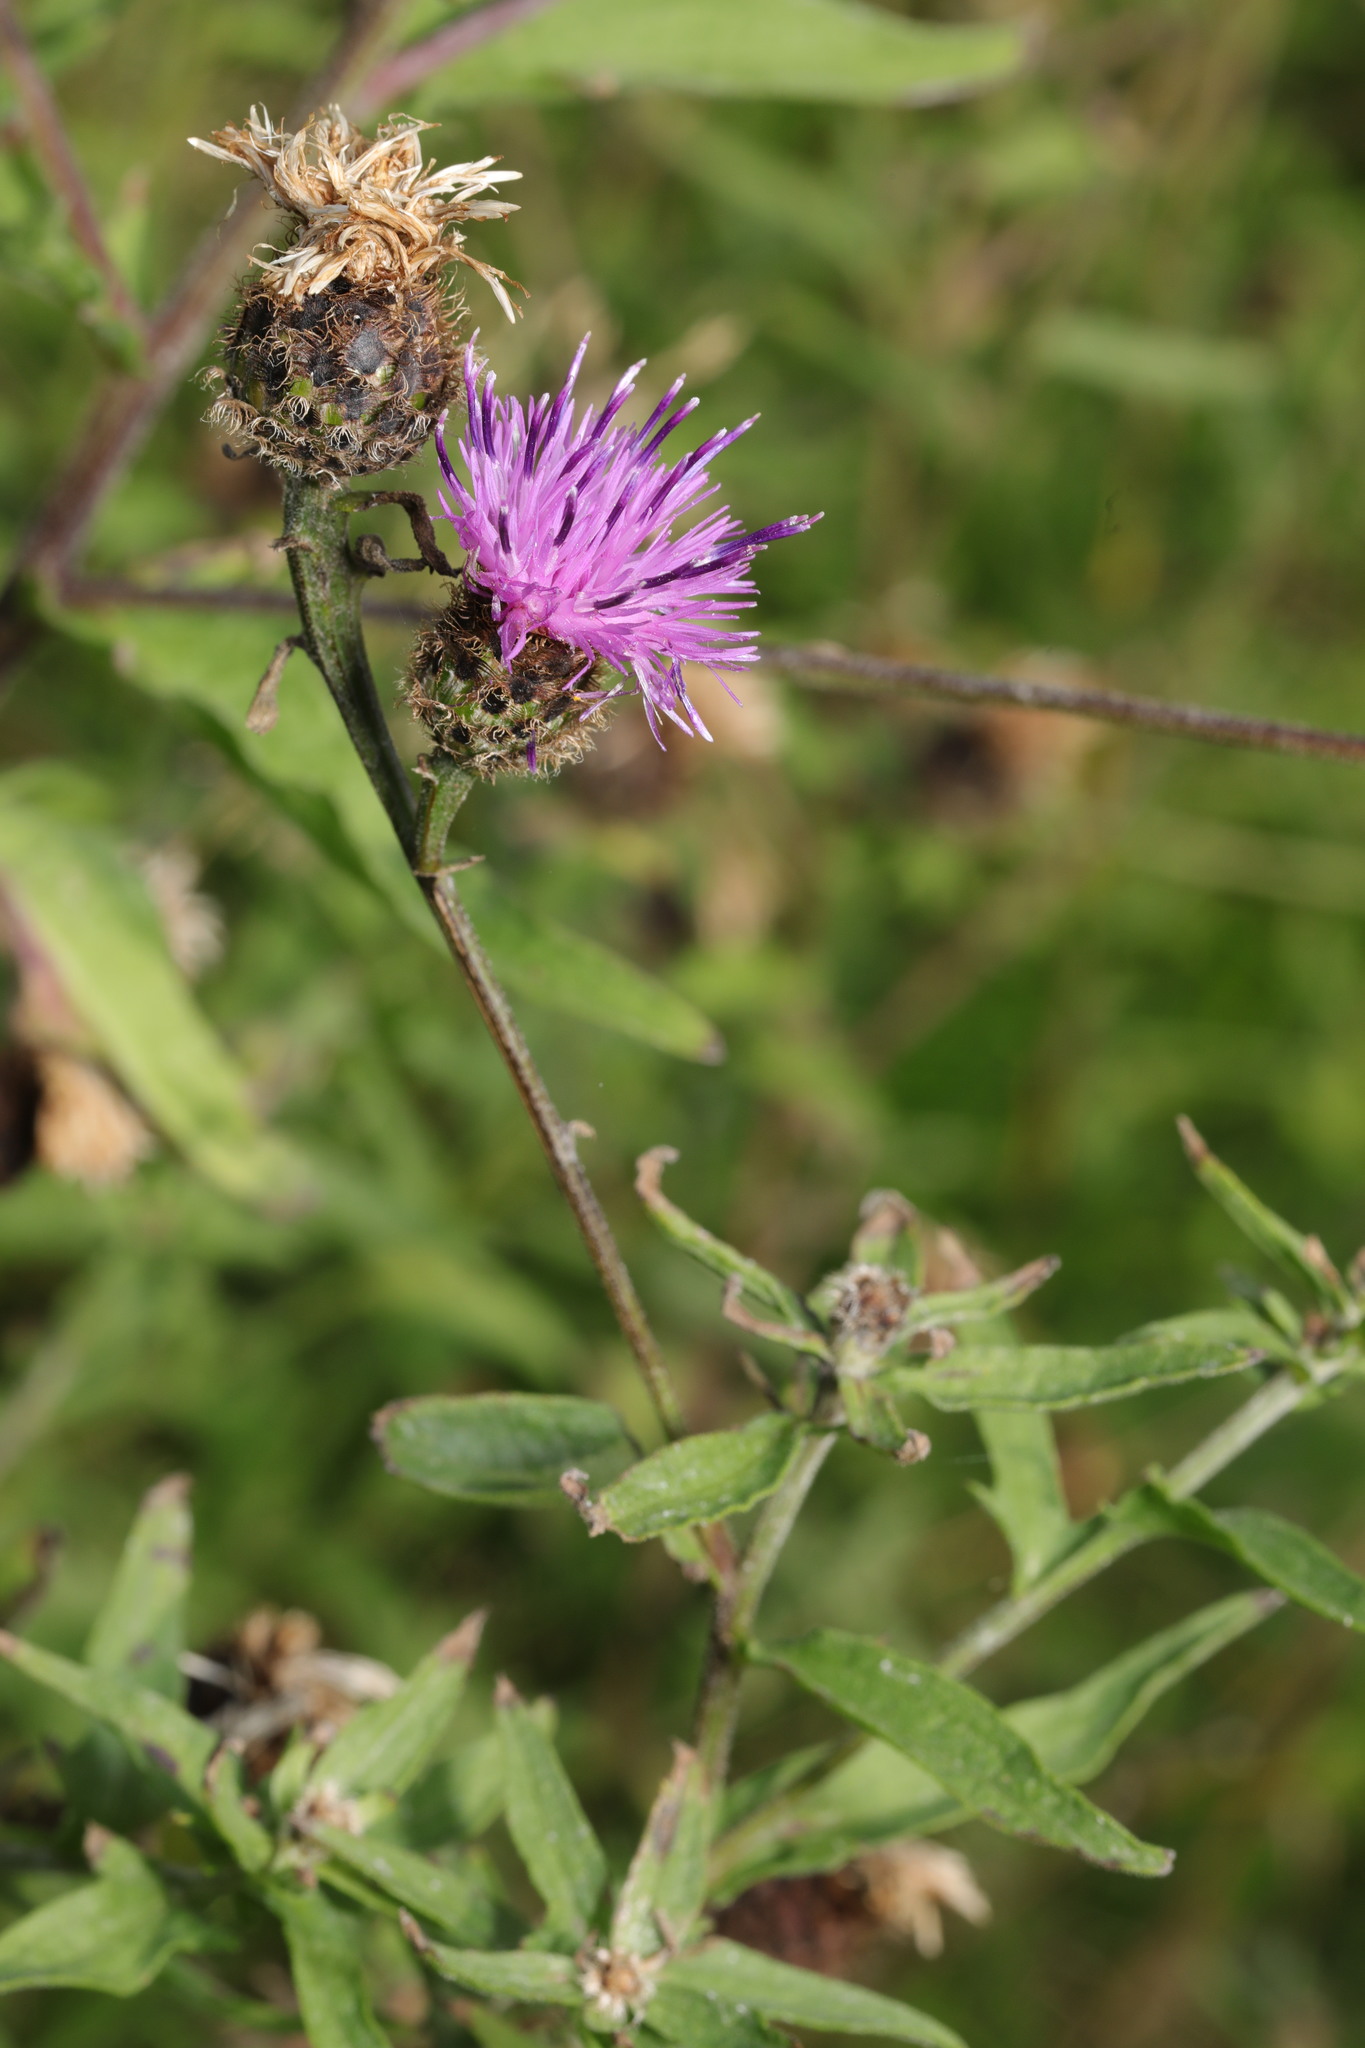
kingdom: Plantae
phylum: Tracheophyta
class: Magnoliopsida
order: Asterales
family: Asteraceae
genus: Centaurea
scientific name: Centaurea nigra
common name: Lesser knapweed
